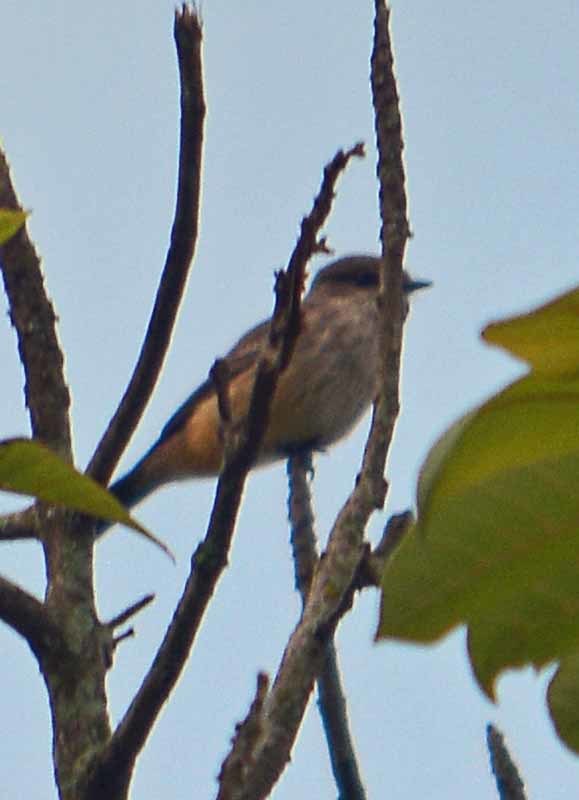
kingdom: Animalia
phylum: Chordata
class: Aves
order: Passeriformes
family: Tyrannidae
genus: Pyrocephalus
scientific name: Pyrocephalus rubinus
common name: Vermilion flycatcher
